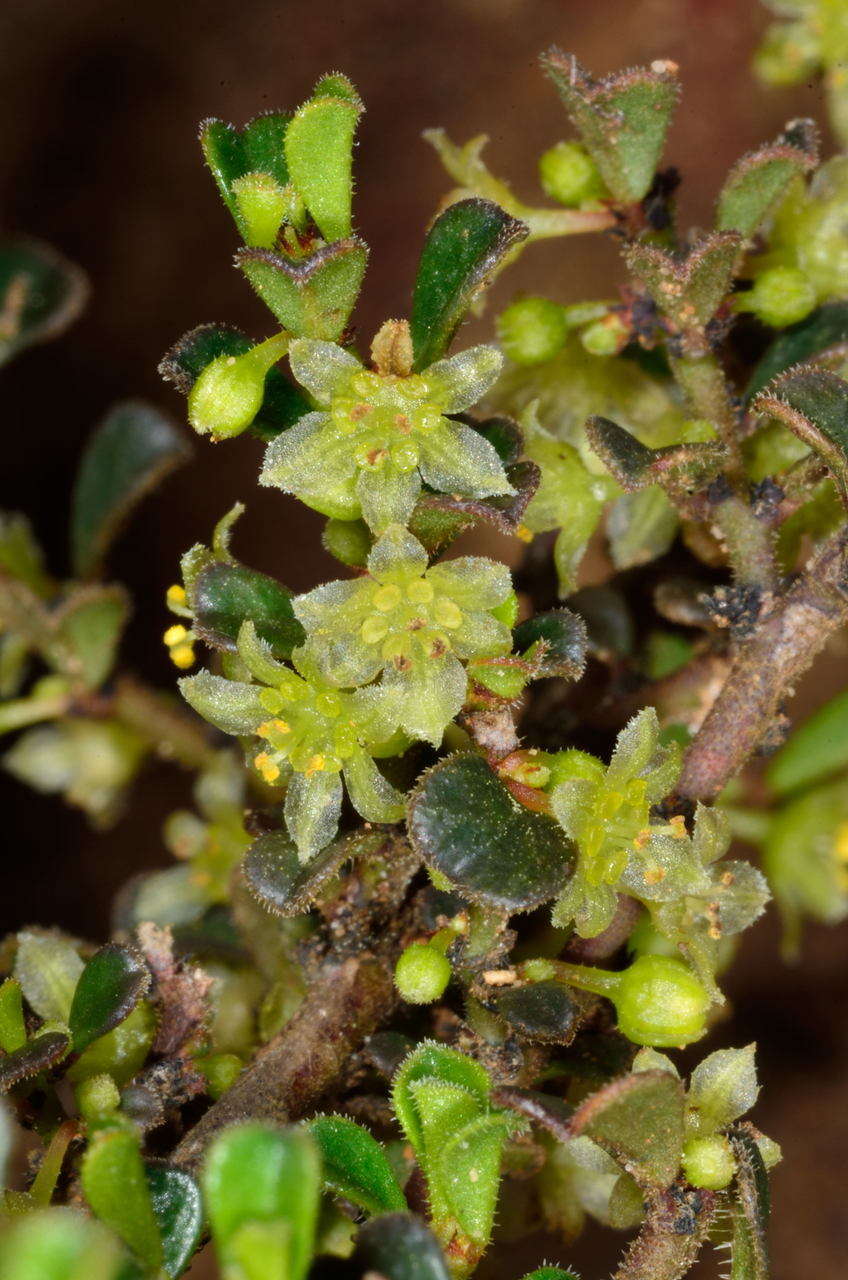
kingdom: Plantae
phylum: Tracheophyta
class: Magnoliopsida
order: Malpighiales
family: Phyllanthaceae
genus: Phyllanthus
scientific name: Phyllanthus hirtellus
